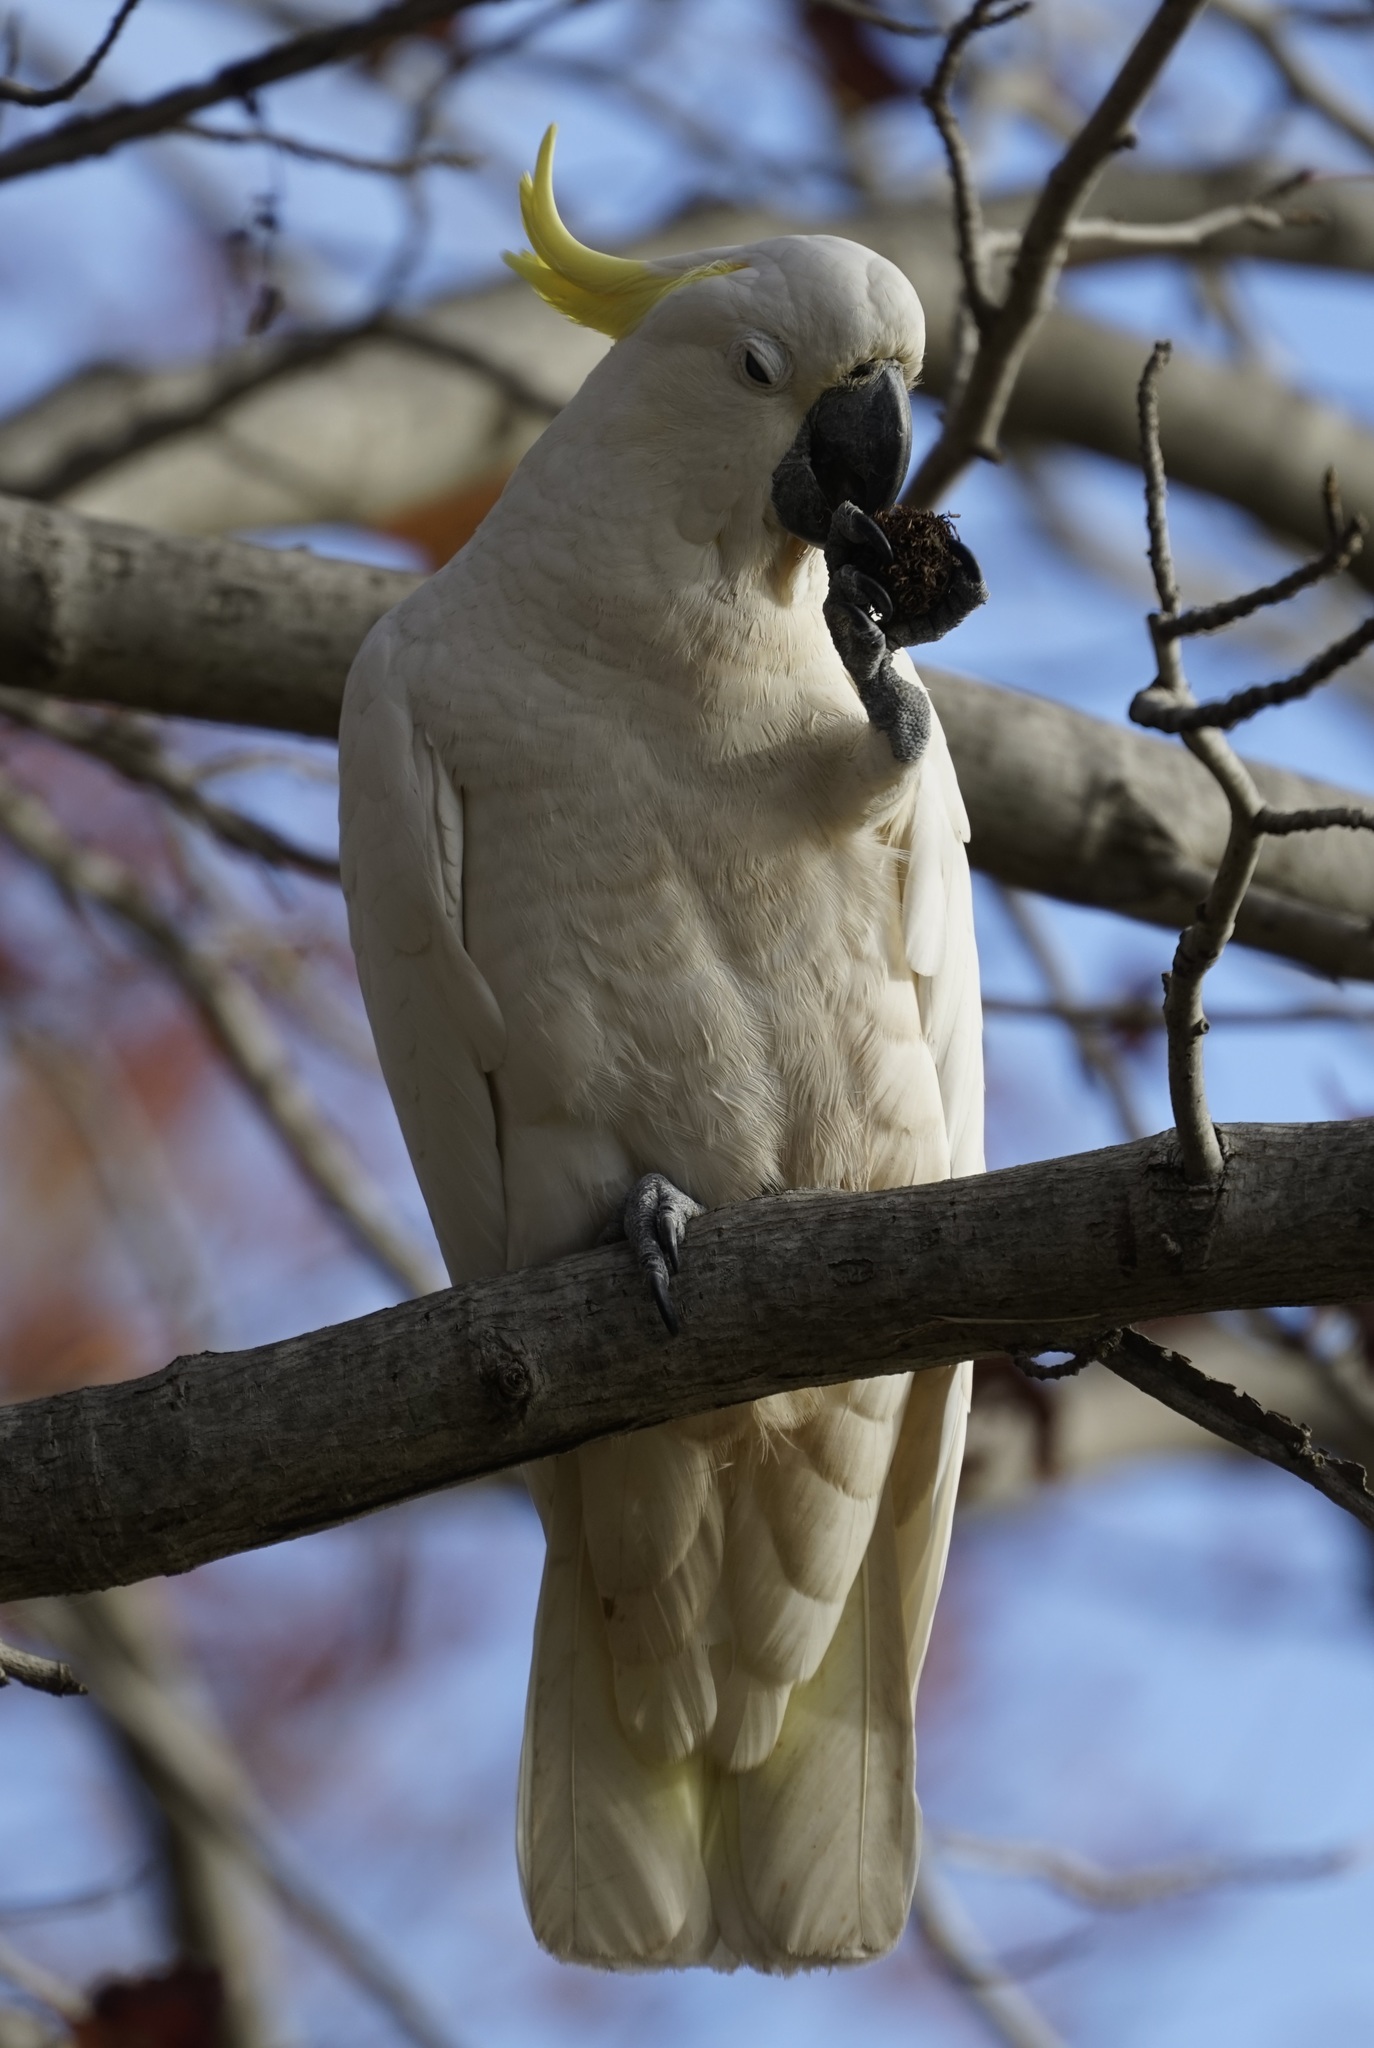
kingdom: Animalia
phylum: Chordata
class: Aves
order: Psittaciformes
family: Psittacidae
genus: Cacatua
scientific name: Cacatua galerita
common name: Sulphur-crested cockatoo
